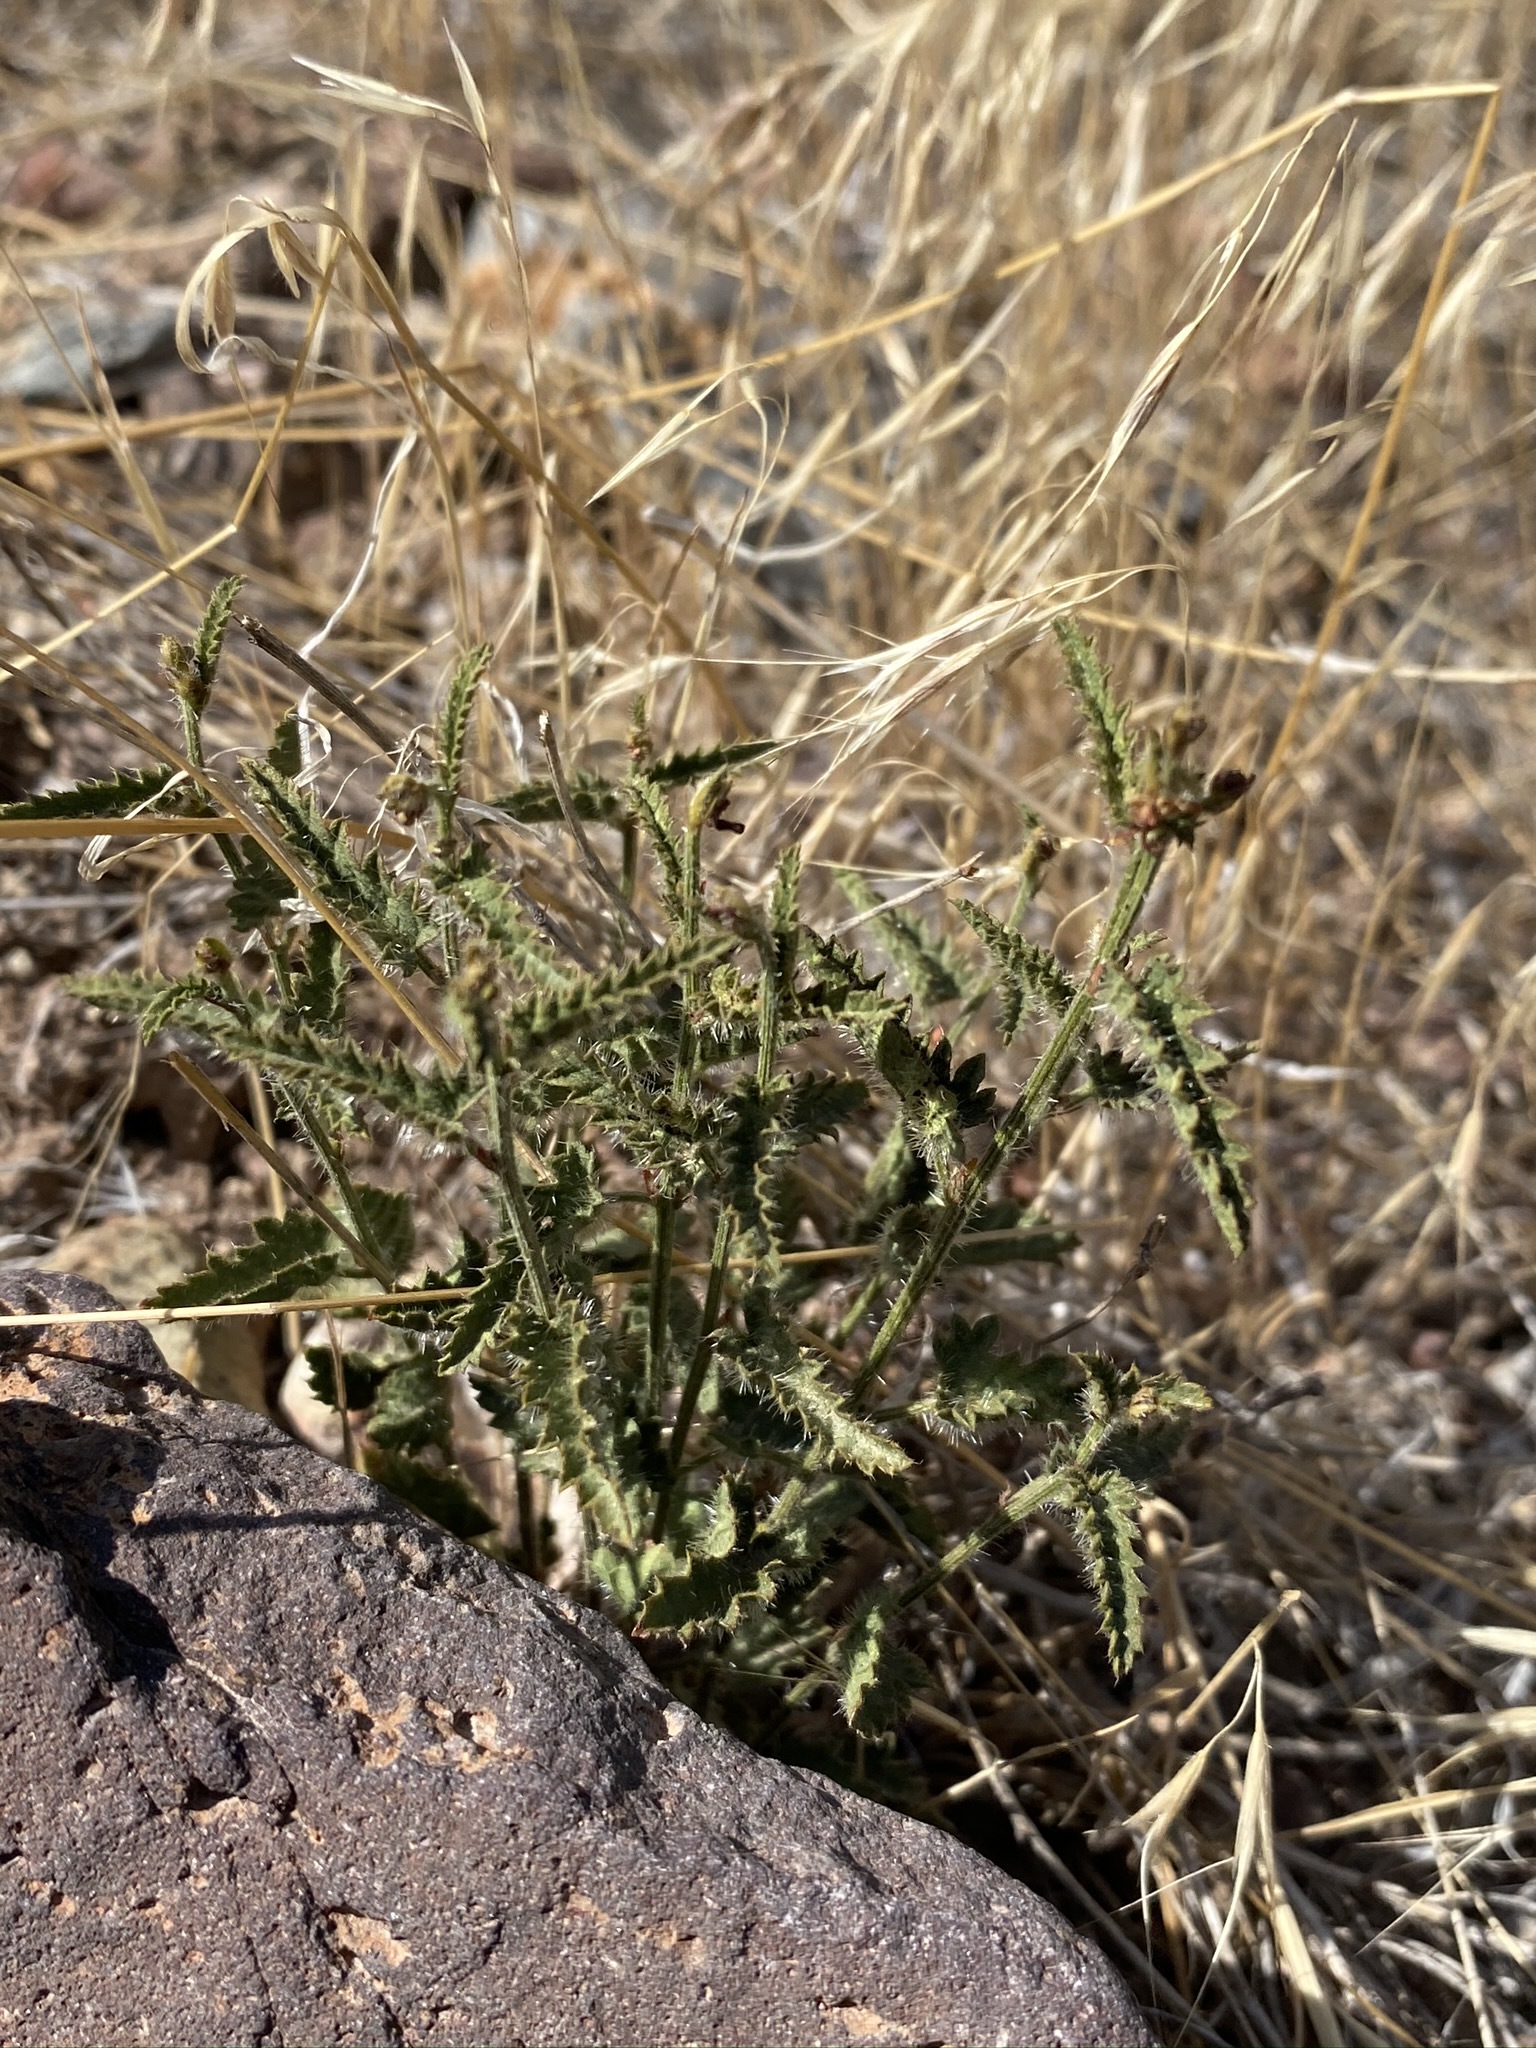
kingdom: Plantae
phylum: Tracheophyta
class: Magnoliopsida
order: Malpighiales
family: Euphorbiaceae
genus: Tragia
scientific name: Tragia ramosa
